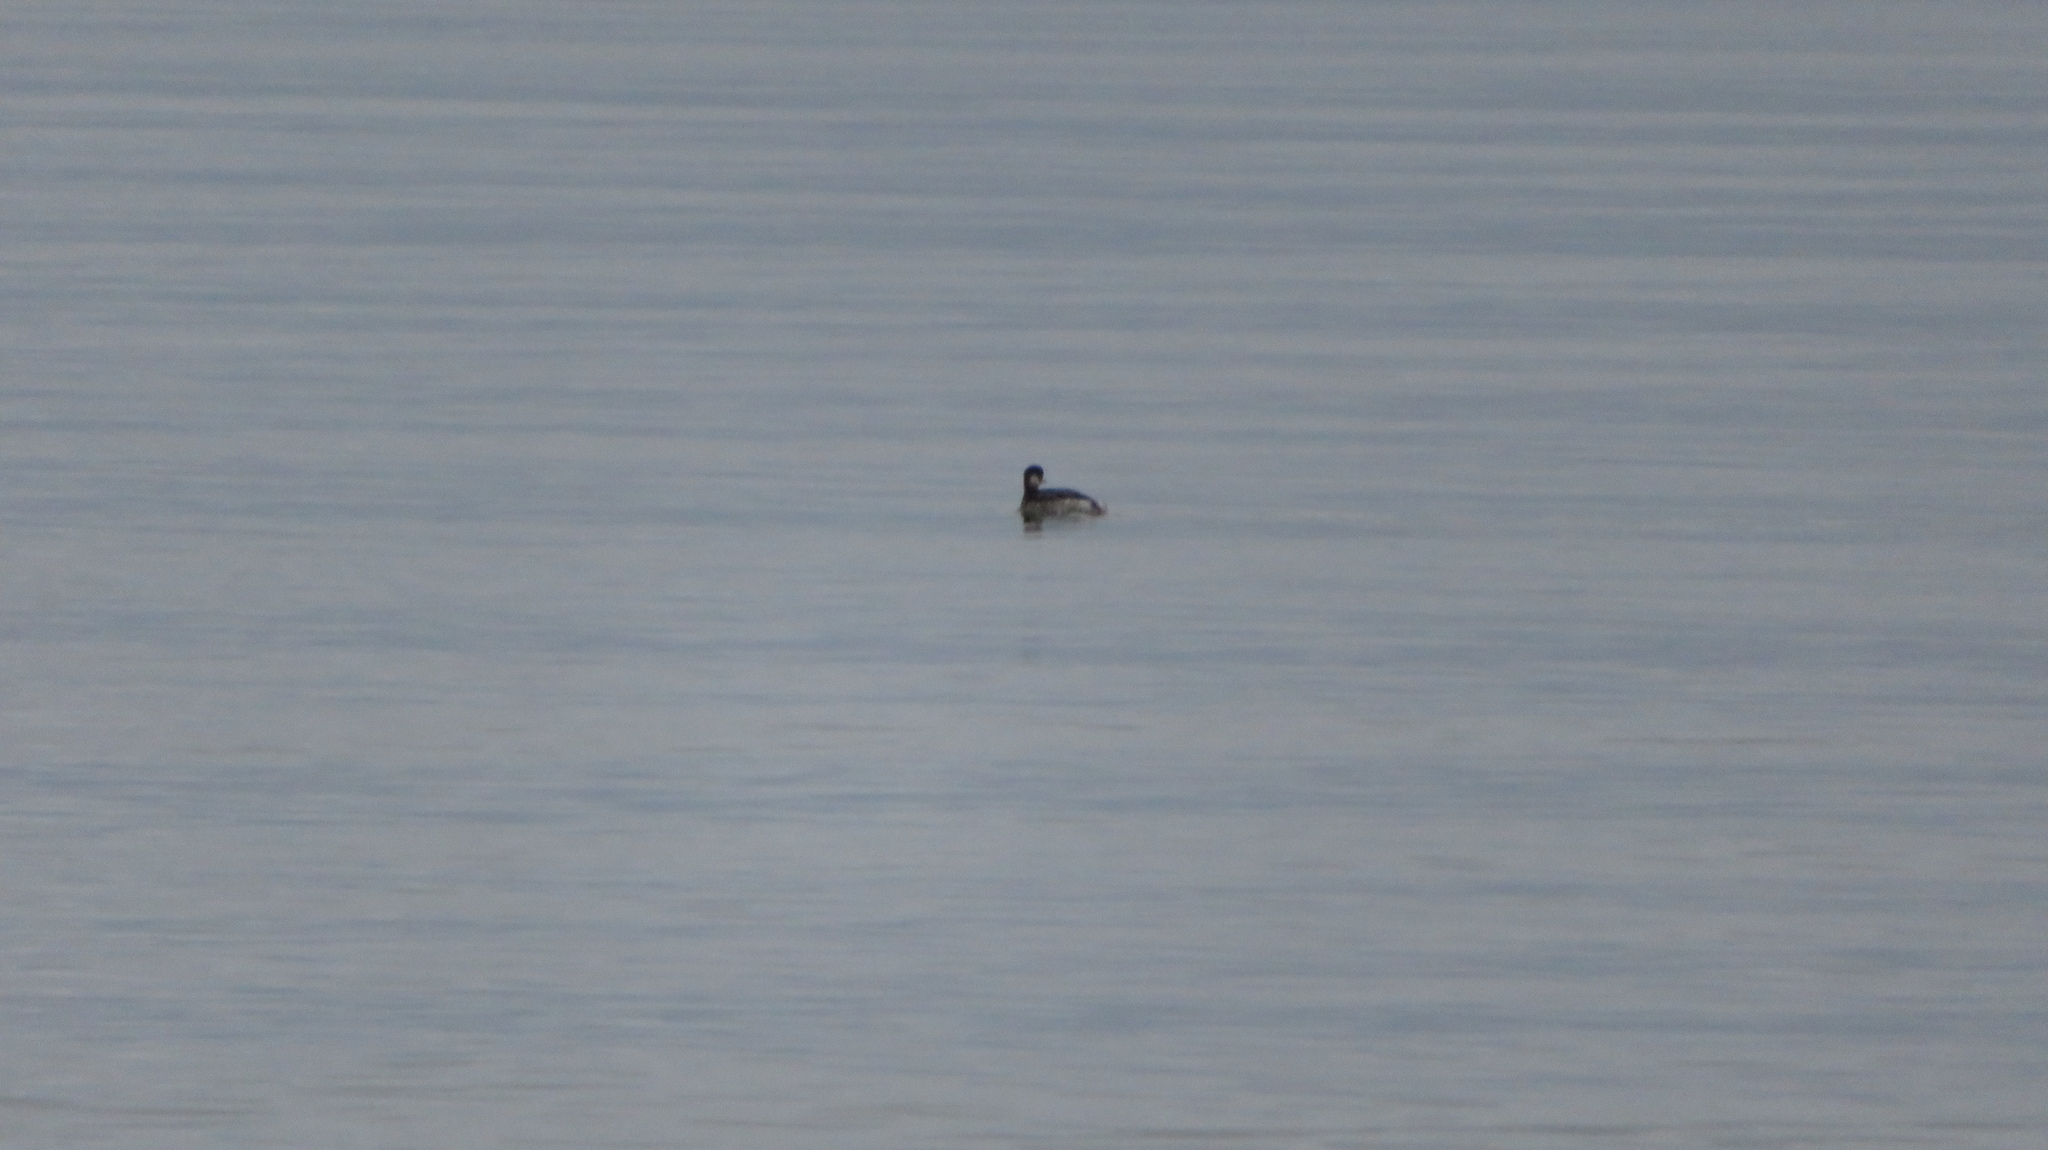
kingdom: Animalia
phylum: Chordata
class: Aves
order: Podicipediformes
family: Podicipedidae
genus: Podiceps
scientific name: Podiceps nigricollis
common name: Black-necked grebe
